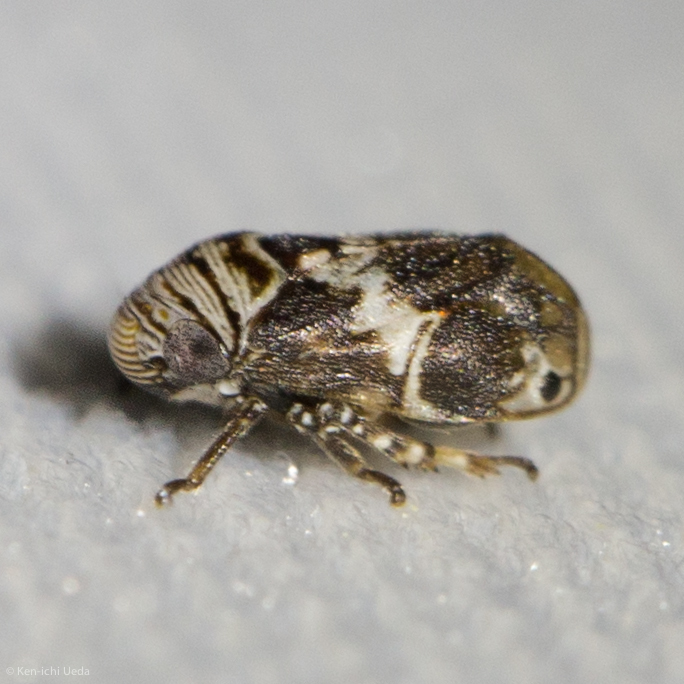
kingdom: Animalia
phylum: Arthropoda
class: Insecta
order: Hemiptera
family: Clastopteridae
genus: Clastoptera
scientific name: Clastoptera arizonana
